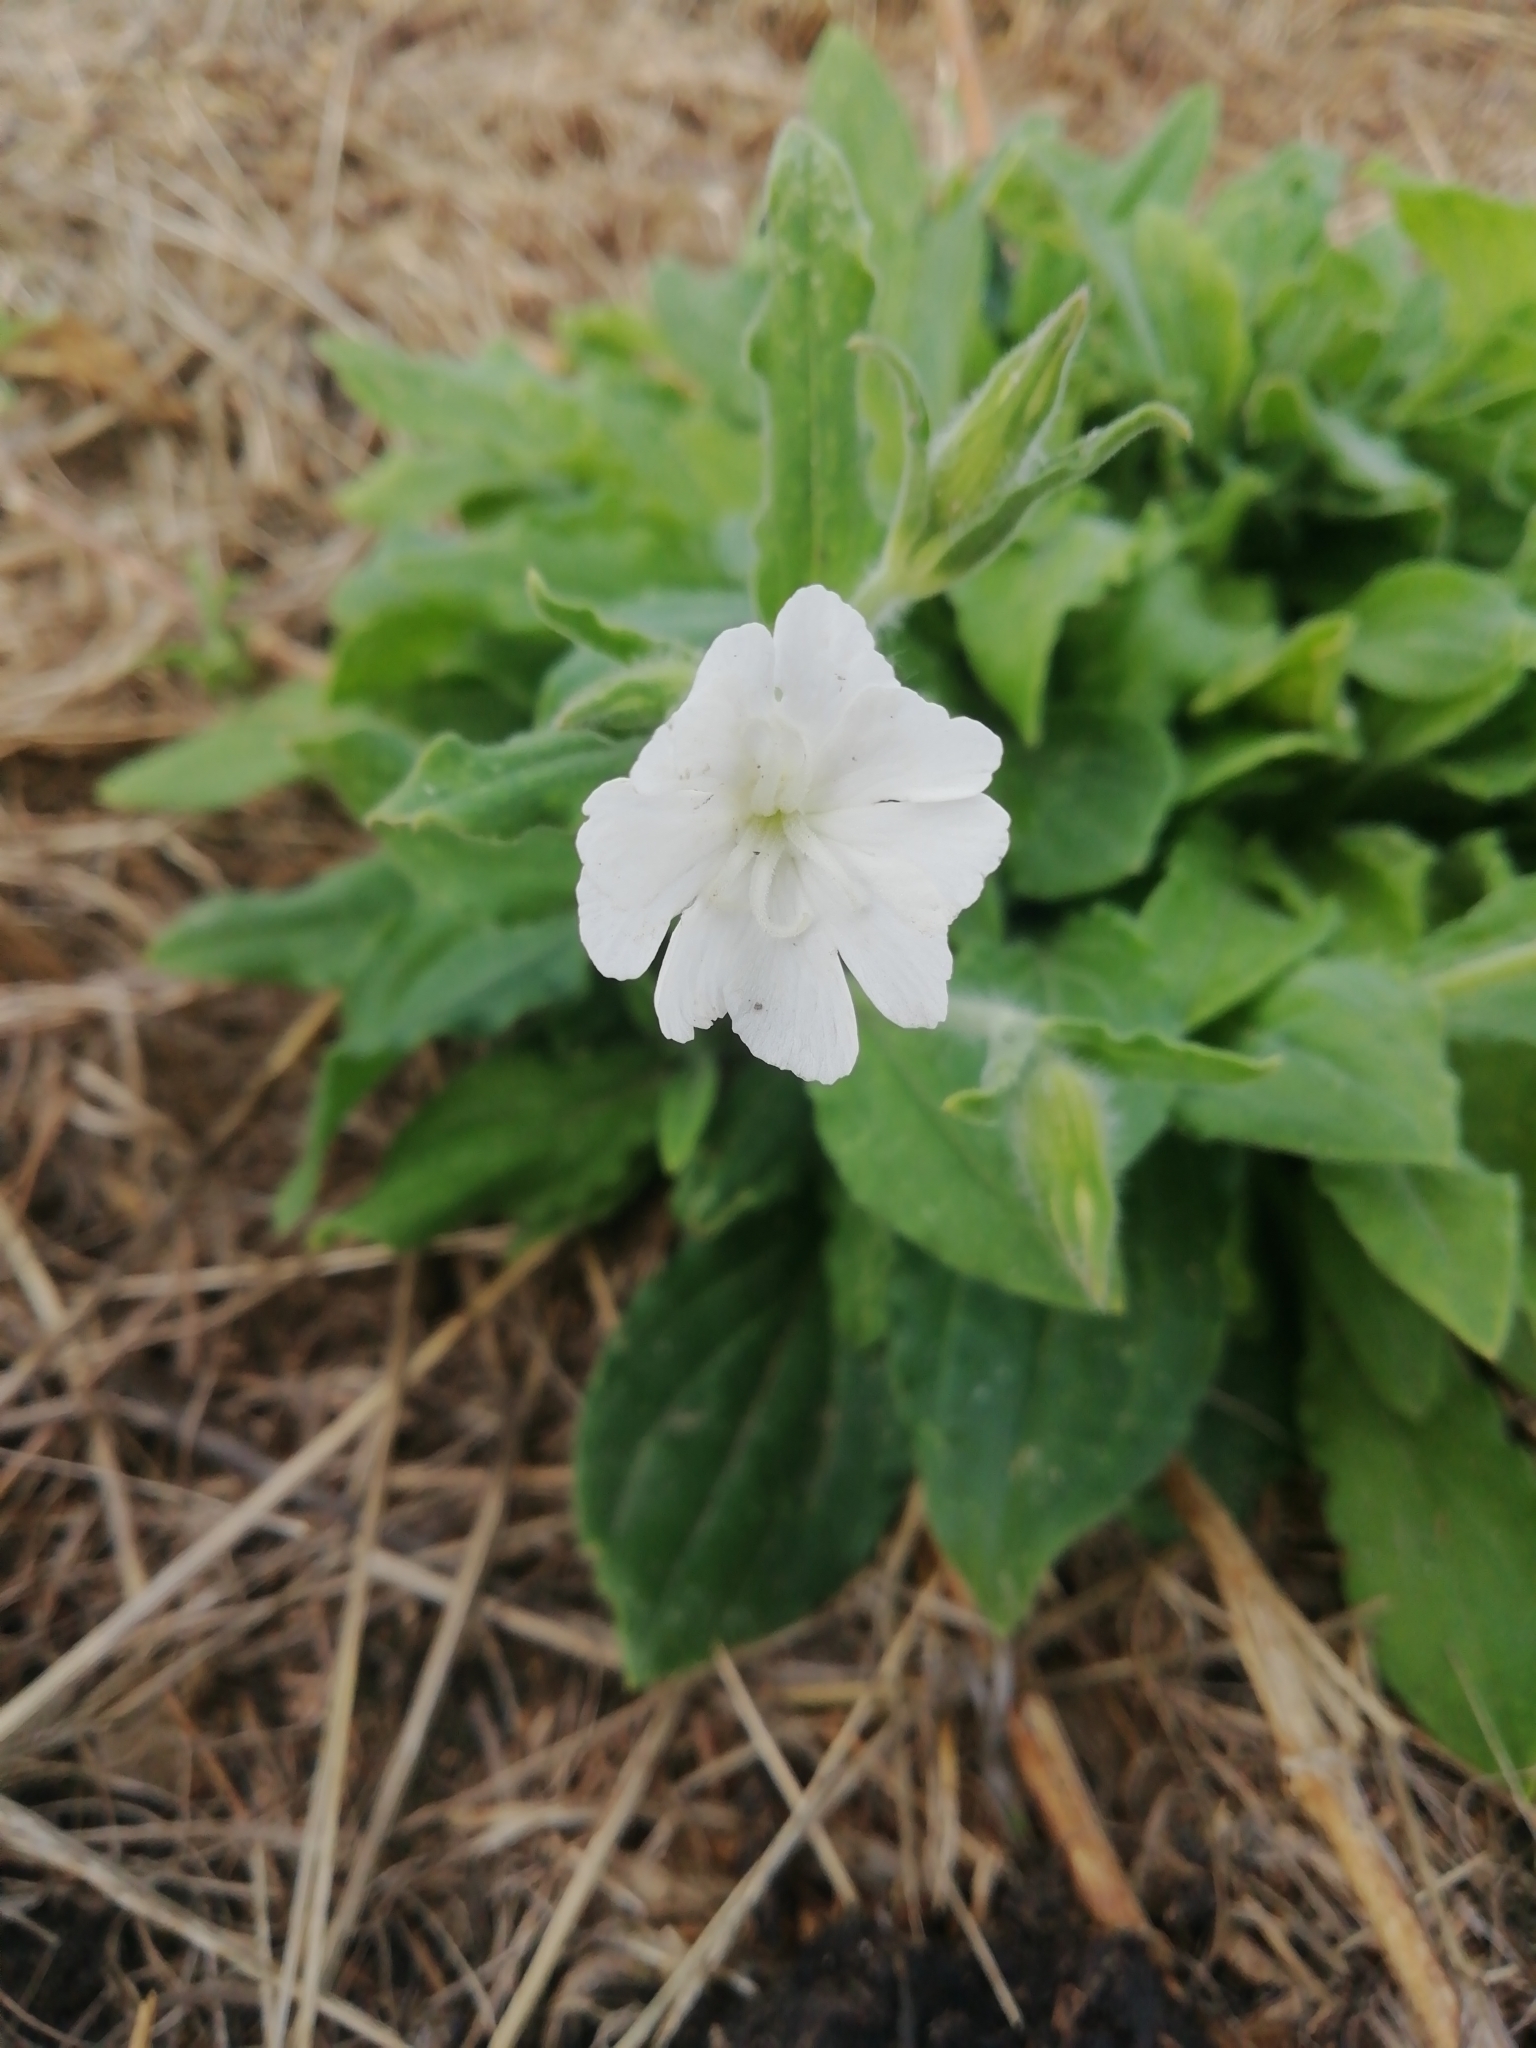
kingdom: Plantae
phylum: Tracheophyta
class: Magnoliopsida
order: Caryophyllales
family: Caryophyllaceae
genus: Silene
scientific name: Silene latifolia
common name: White campion
